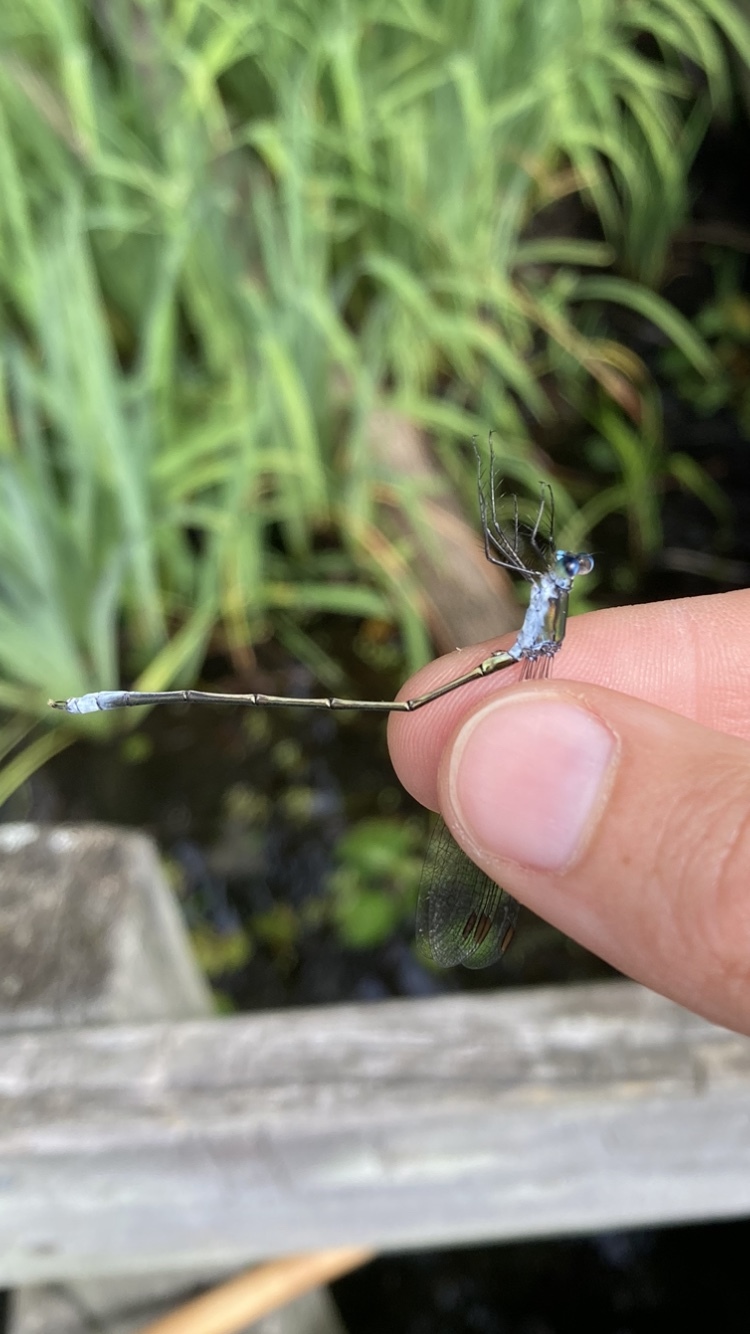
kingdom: Animalia
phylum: Arthropoda
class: Insecta
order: Odonata
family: Lestidae
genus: Lestes
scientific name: Lestes vigilax
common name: Swamp spreadwing
